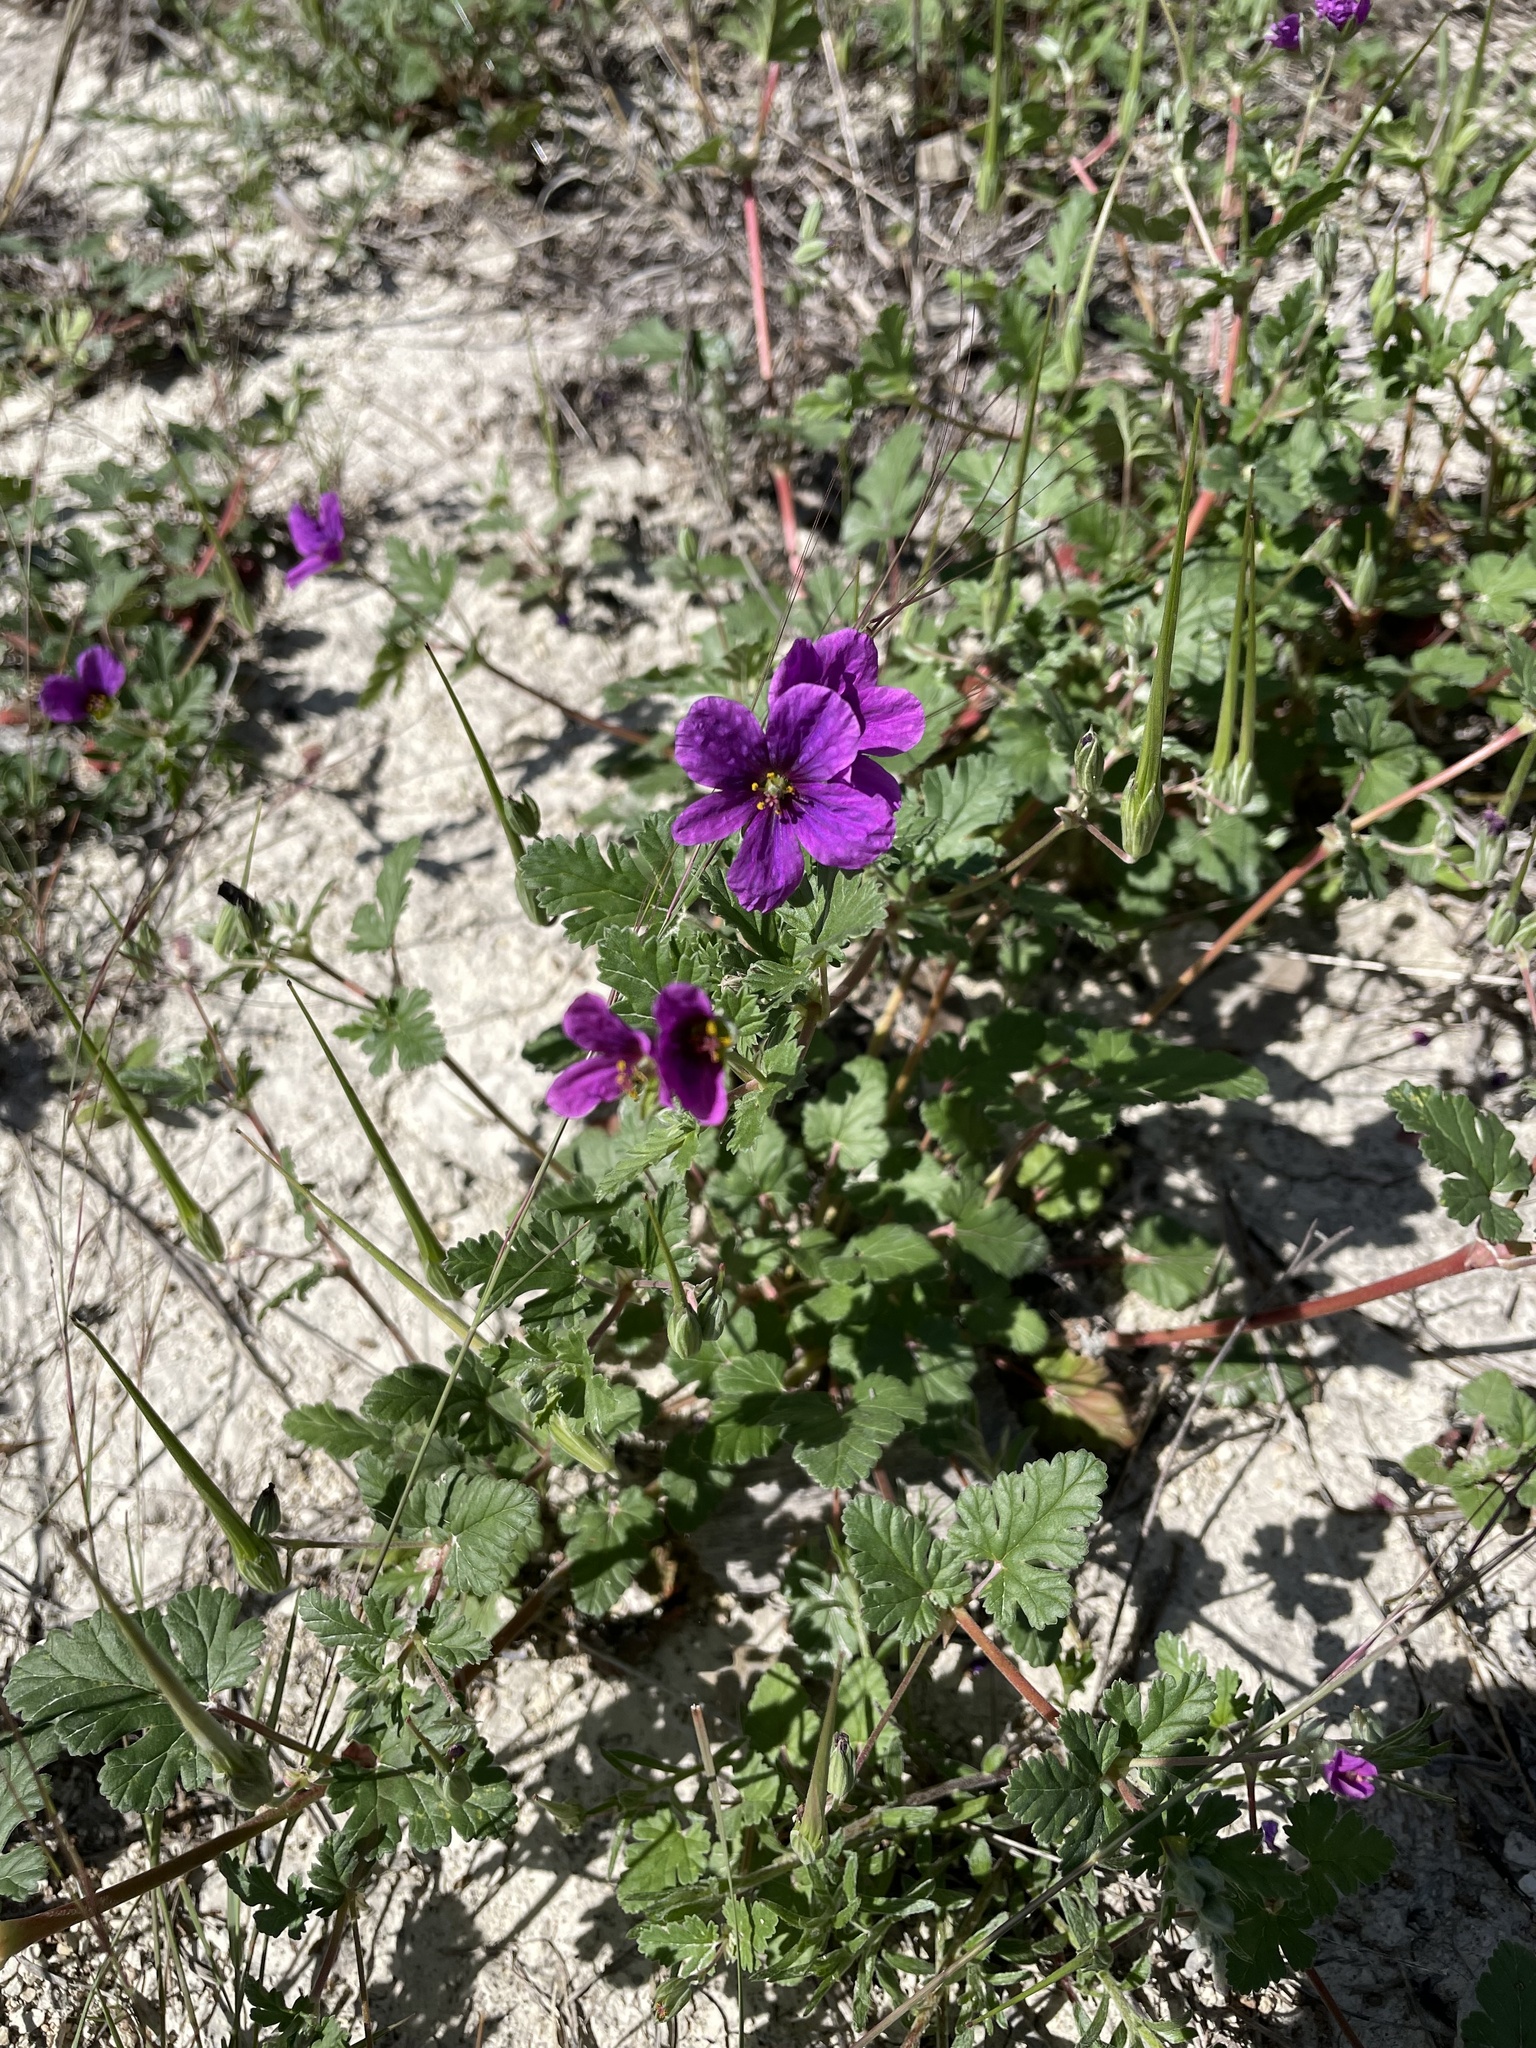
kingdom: Plantae
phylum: Tracheophyta
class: Magnoliopsida
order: Geraniales
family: Geraniaceae
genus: Erodium
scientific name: Erodium texanum
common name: Texas stork's-bill
